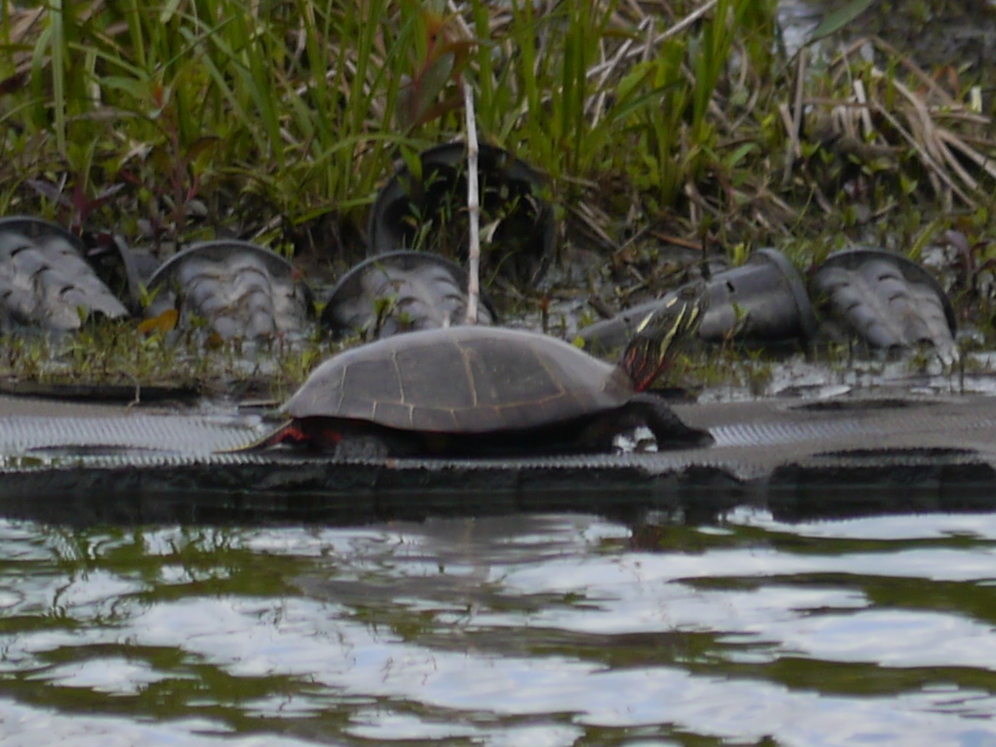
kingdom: Animalia
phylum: Chordata
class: Testudines
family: Emydidae
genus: Chrysemys
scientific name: Chrysemys picta
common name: Painted turtle
